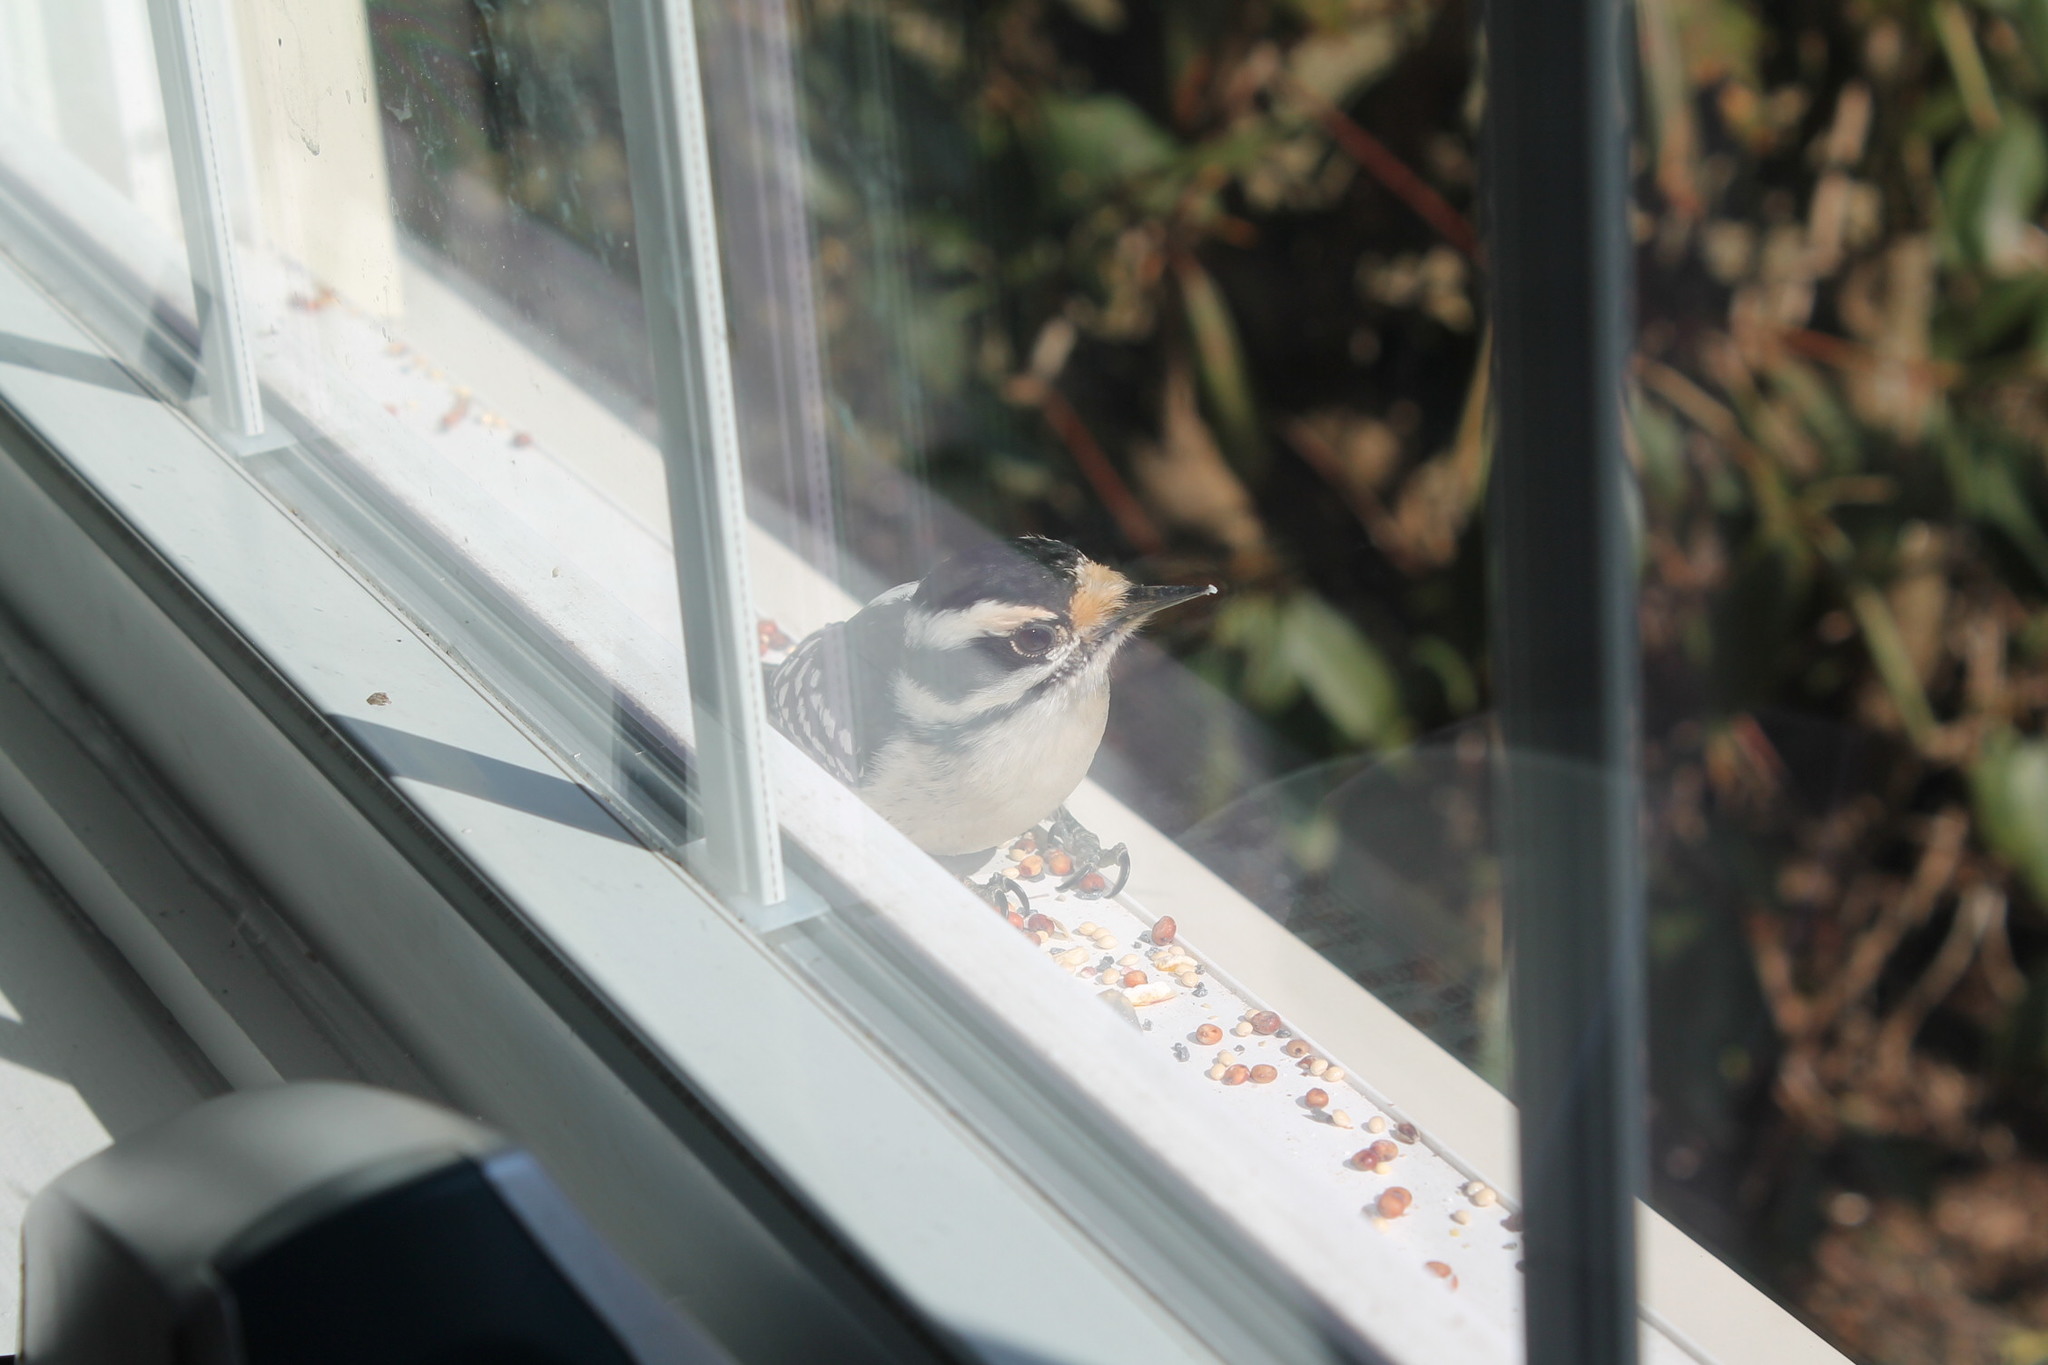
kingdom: Animalia
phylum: Chordata
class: Aves
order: Piciformes
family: Picidae
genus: Dryobates
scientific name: Dryobates pubescens
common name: Downy woodpecker
